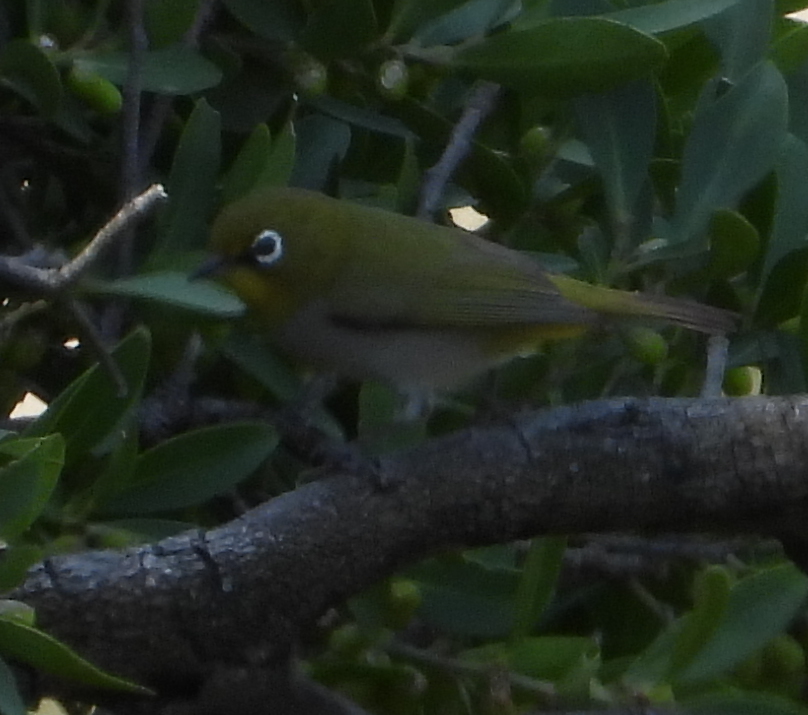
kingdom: Animalia
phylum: Chordata
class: Aves
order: Passeriformes
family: Zosteropidae
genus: Zosterops
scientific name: Zosterops virens
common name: Cape white-eye
